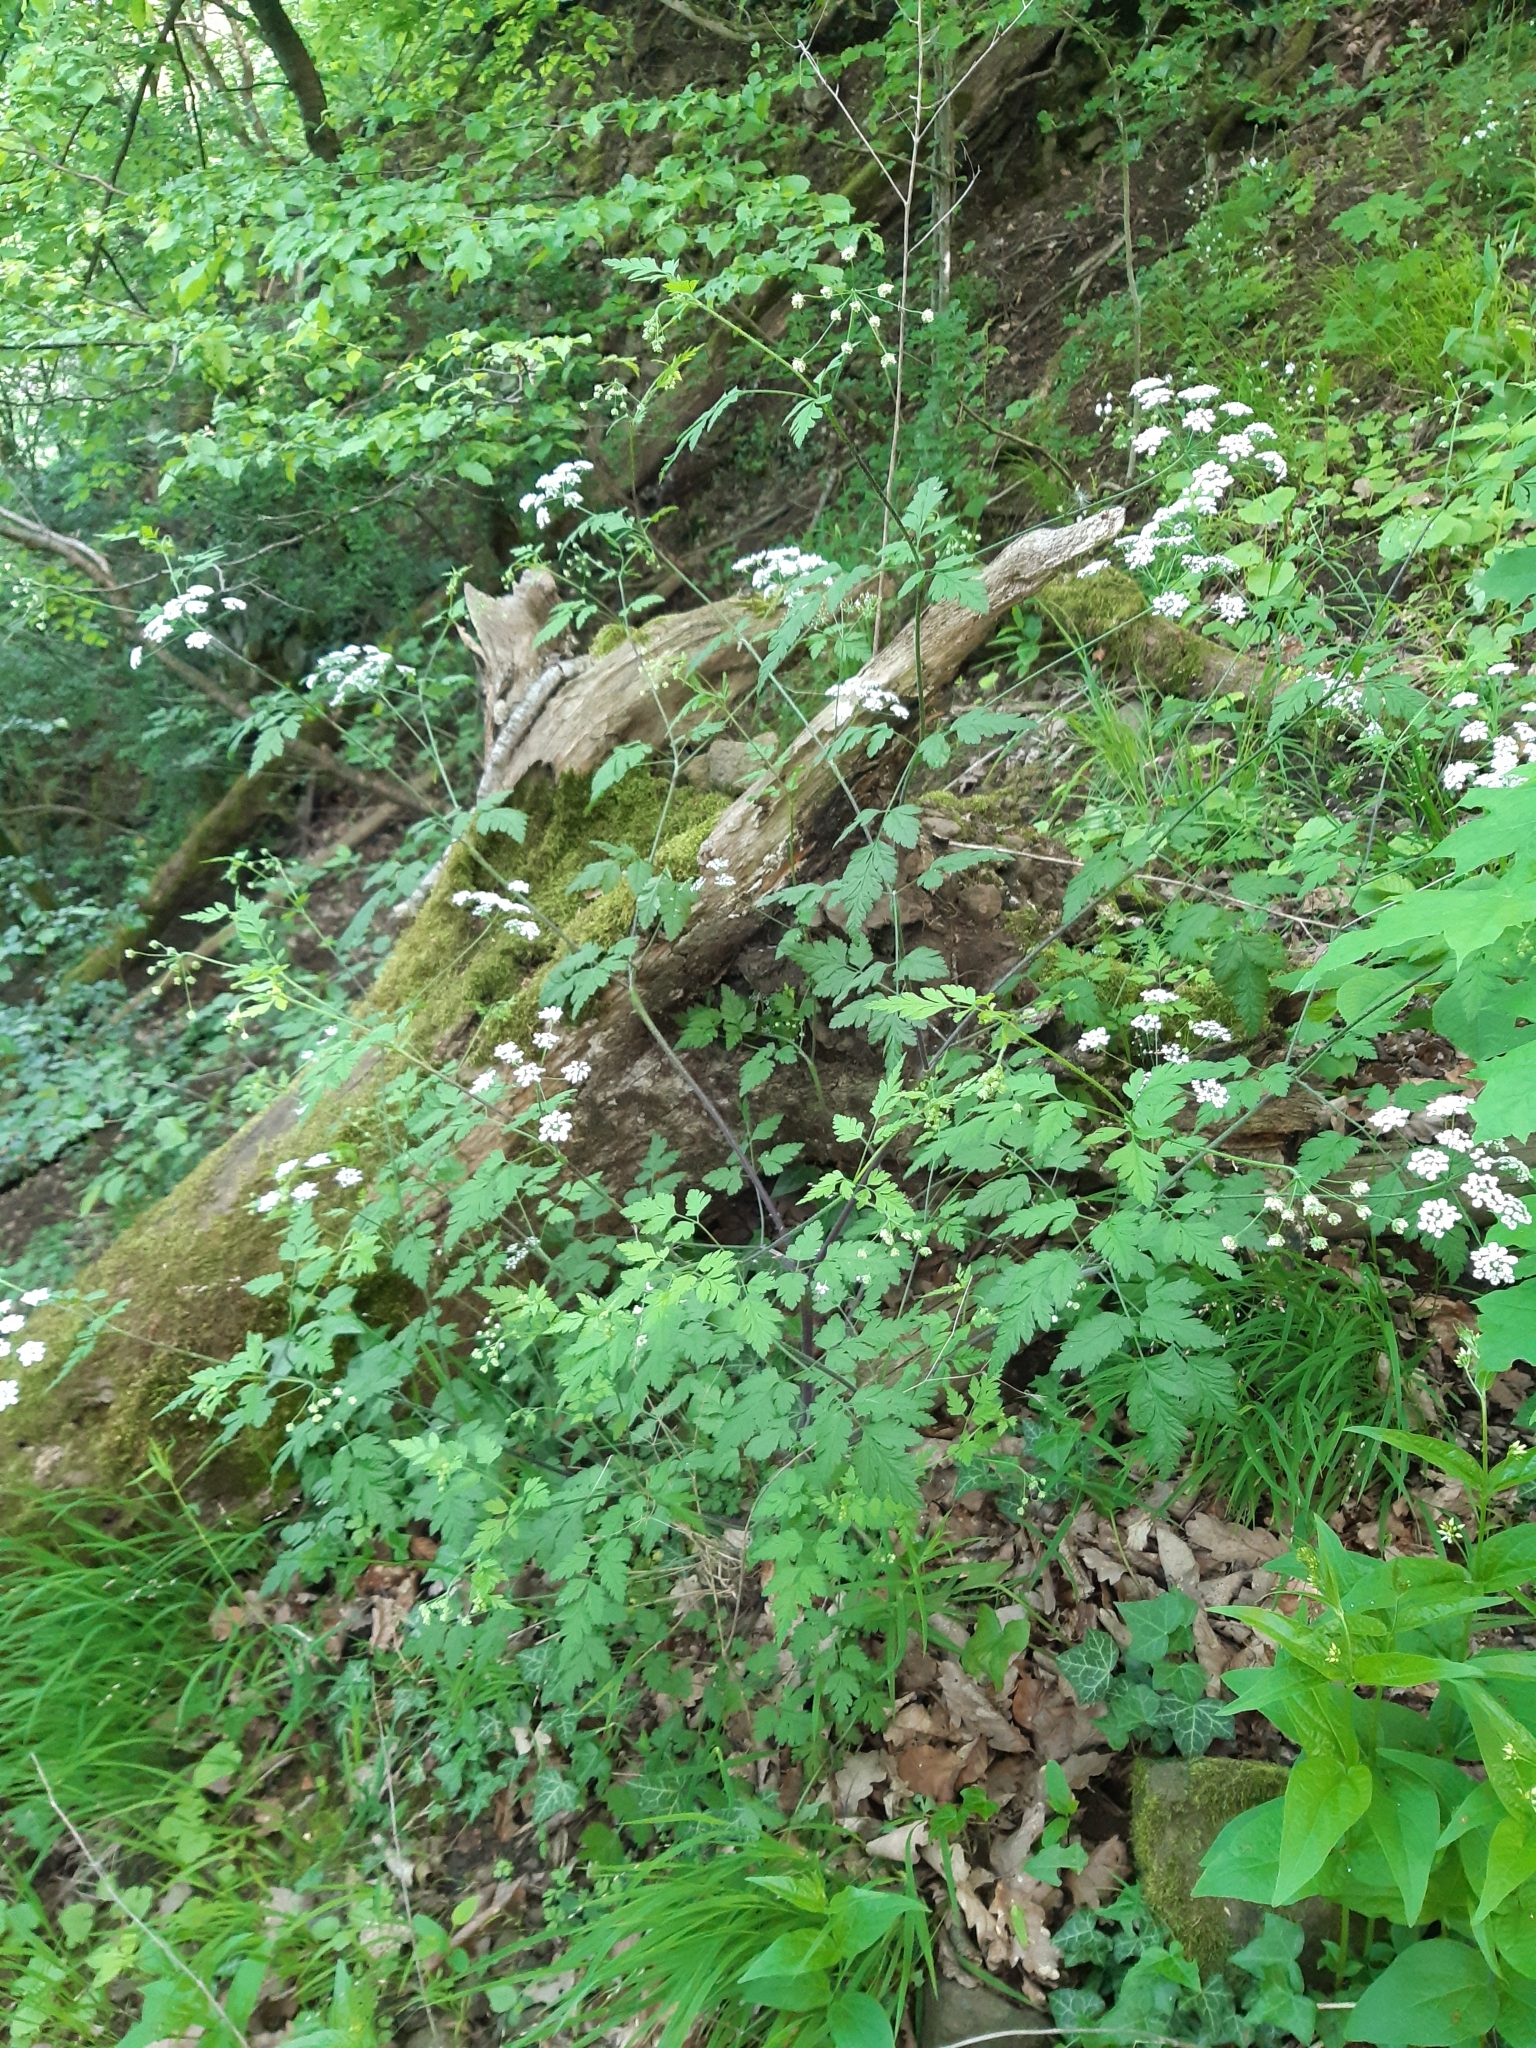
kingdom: Plantae
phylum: Tracheophyta
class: Magnoliopsida
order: Apiales
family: Apiaceae
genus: Chaerophyllum
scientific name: Chaerophyllum temulum
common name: Rough chervil
